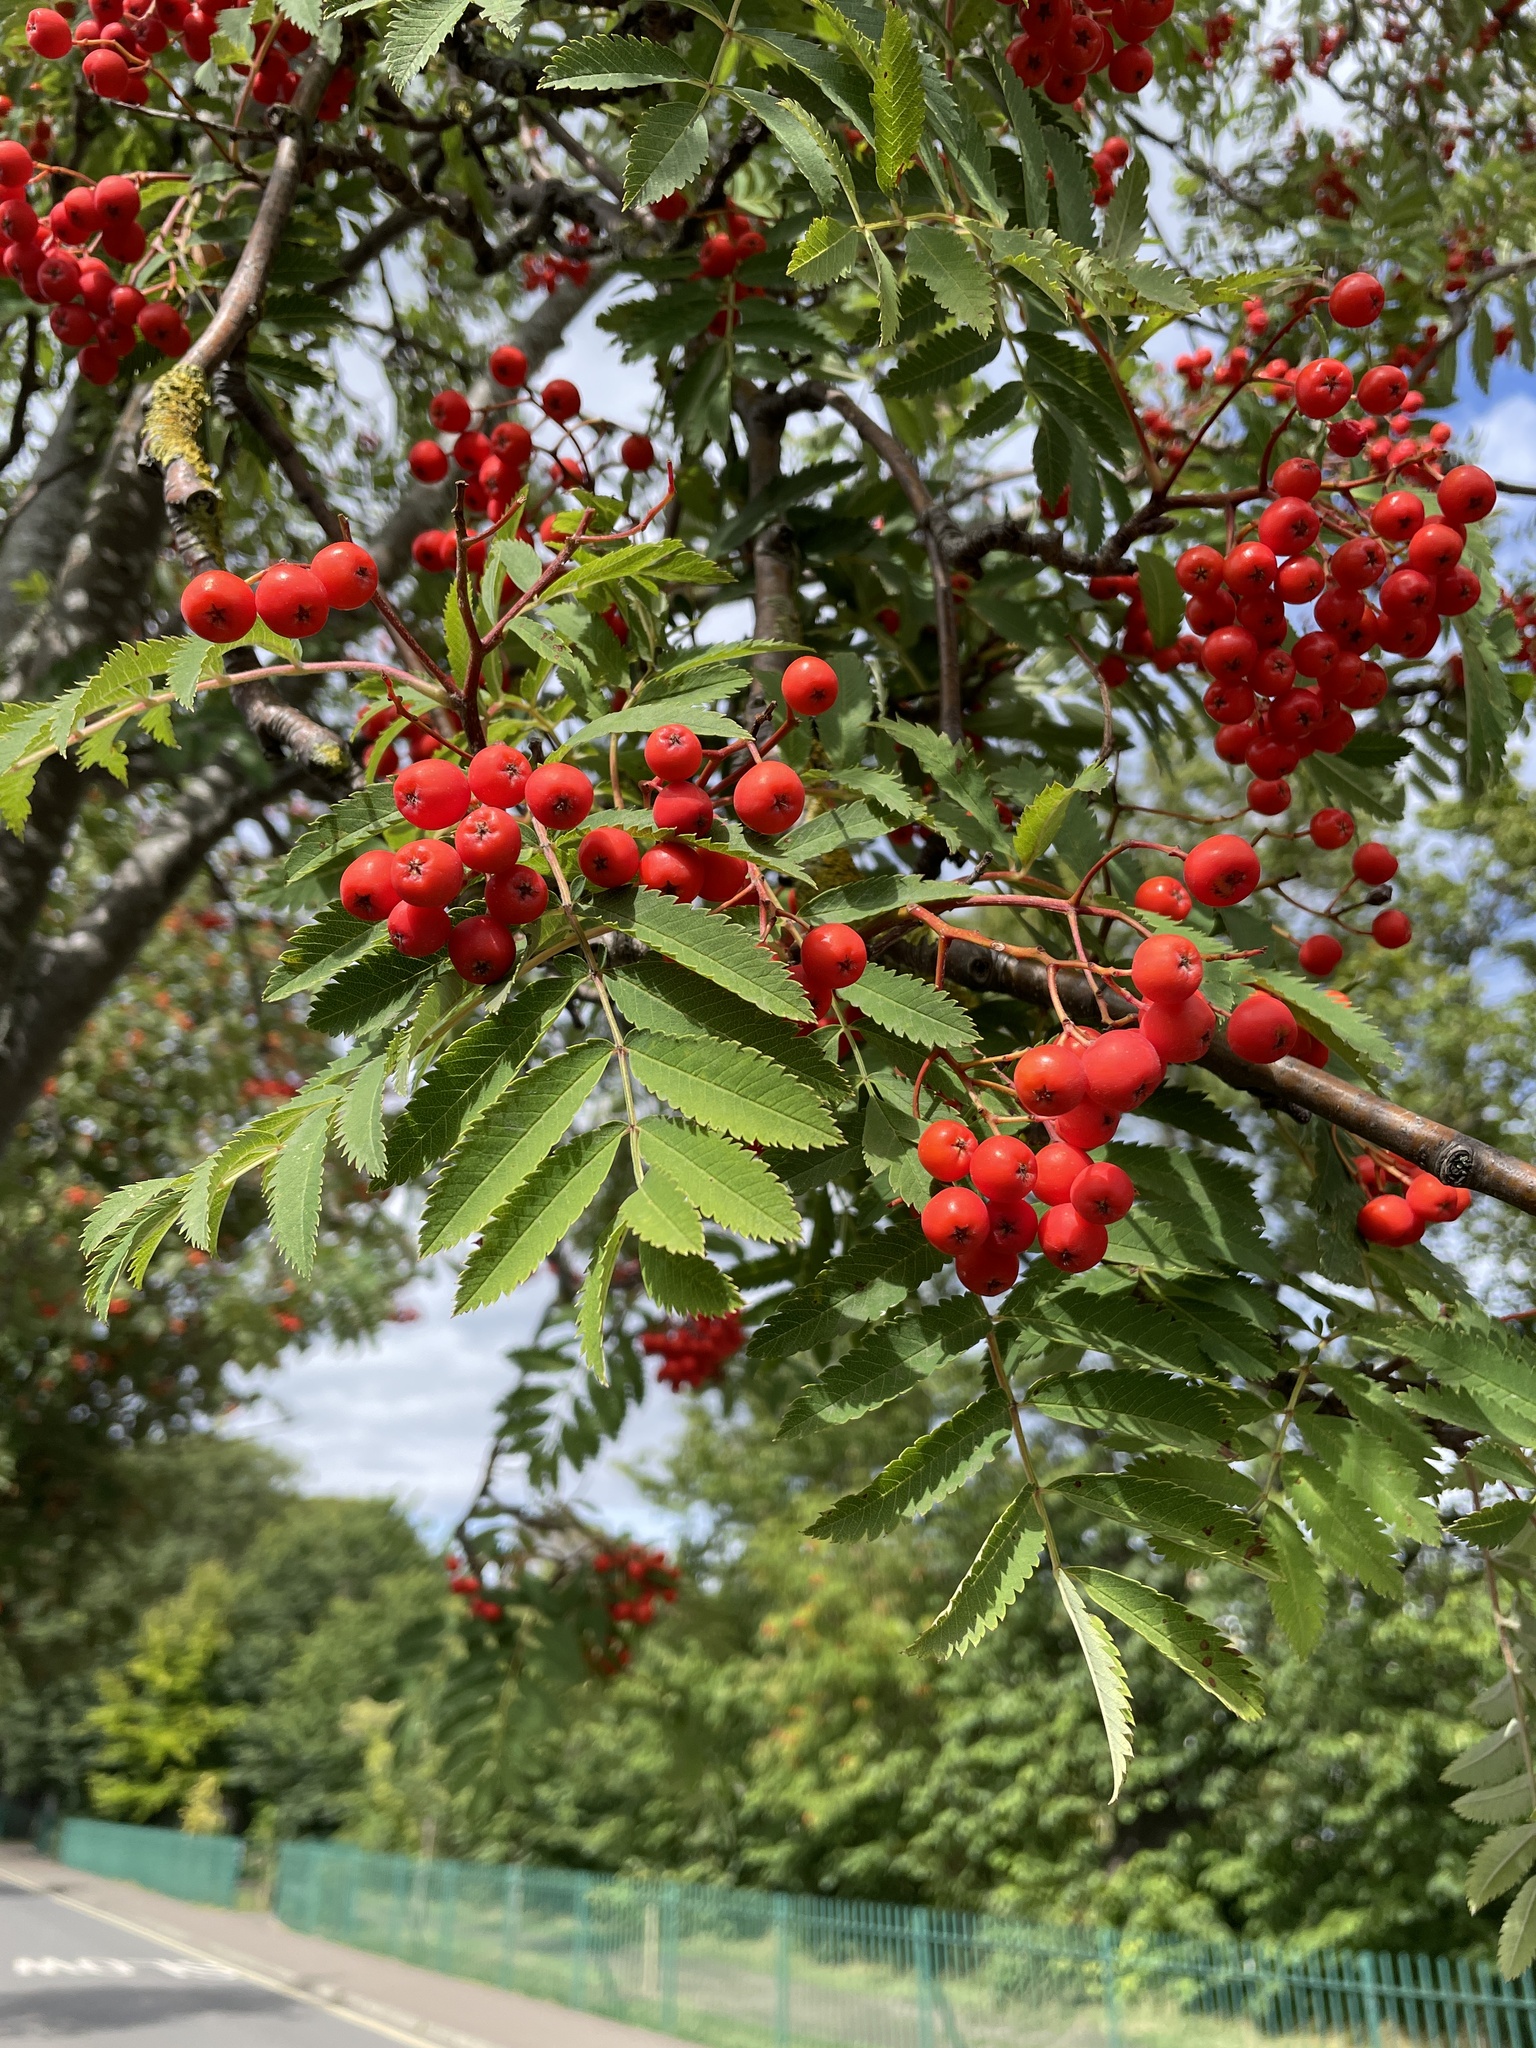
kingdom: Plantae
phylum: Tracheophyta
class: Magnoliopsida
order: Rosales
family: Rosaceae
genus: Sorbus
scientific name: Sorbus aucuparia
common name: Rowan
